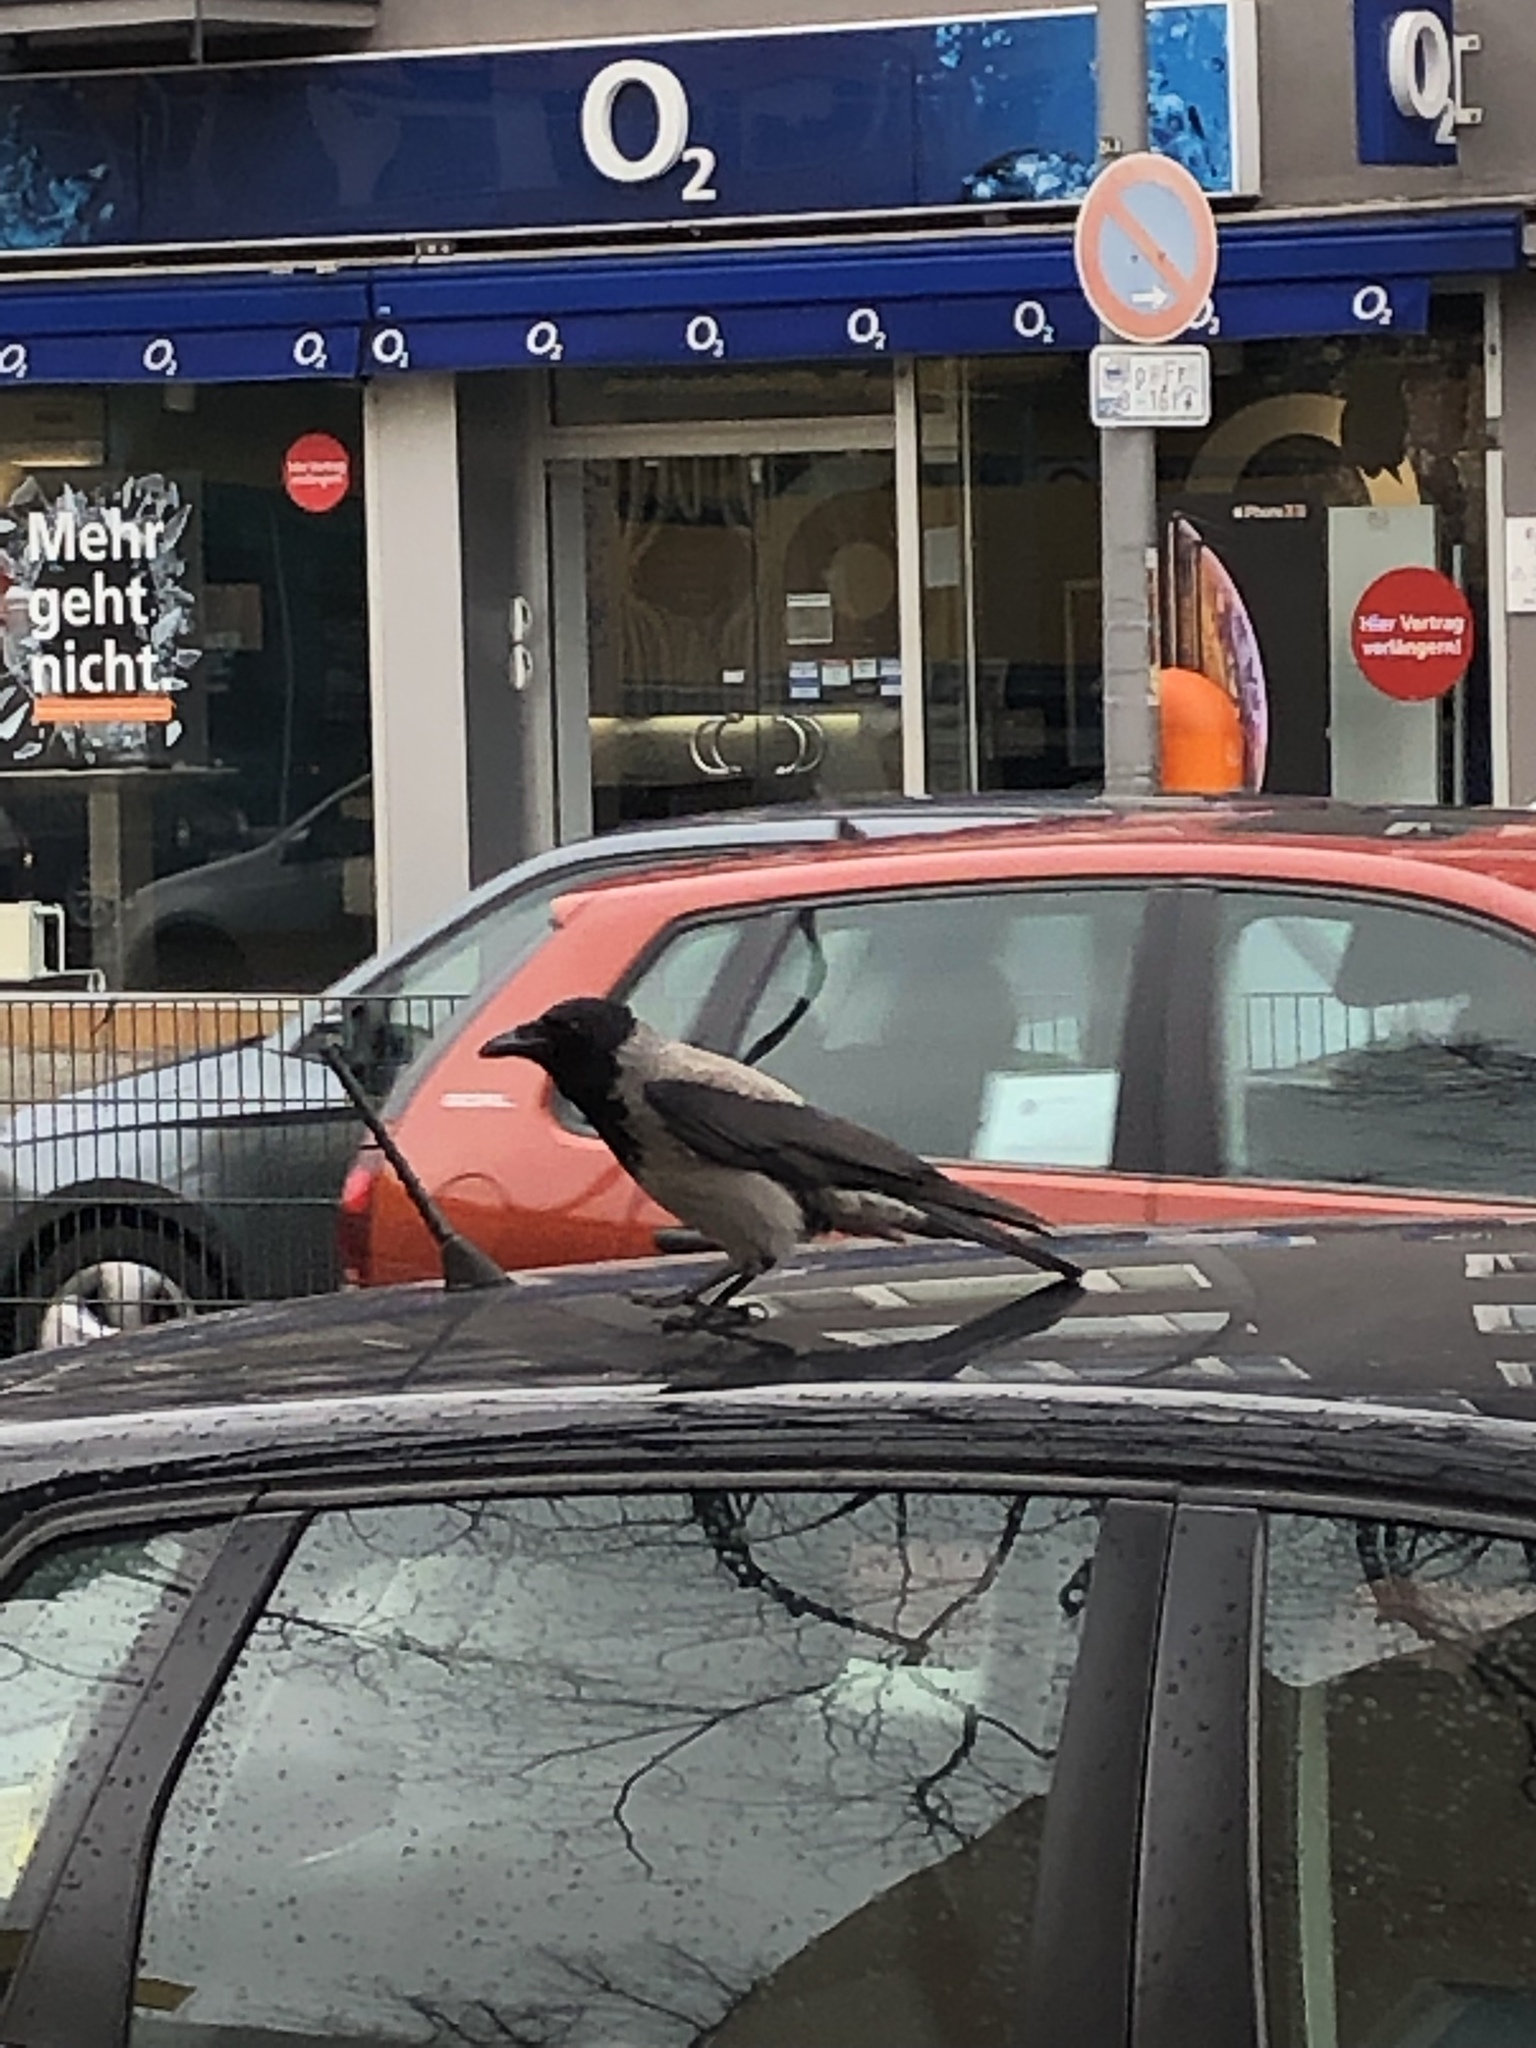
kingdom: Animalia
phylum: Chordata
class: Aves
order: Passeriformes
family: Corvidae
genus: Corvus
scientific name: Corvus cornix
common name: Hooded crow
